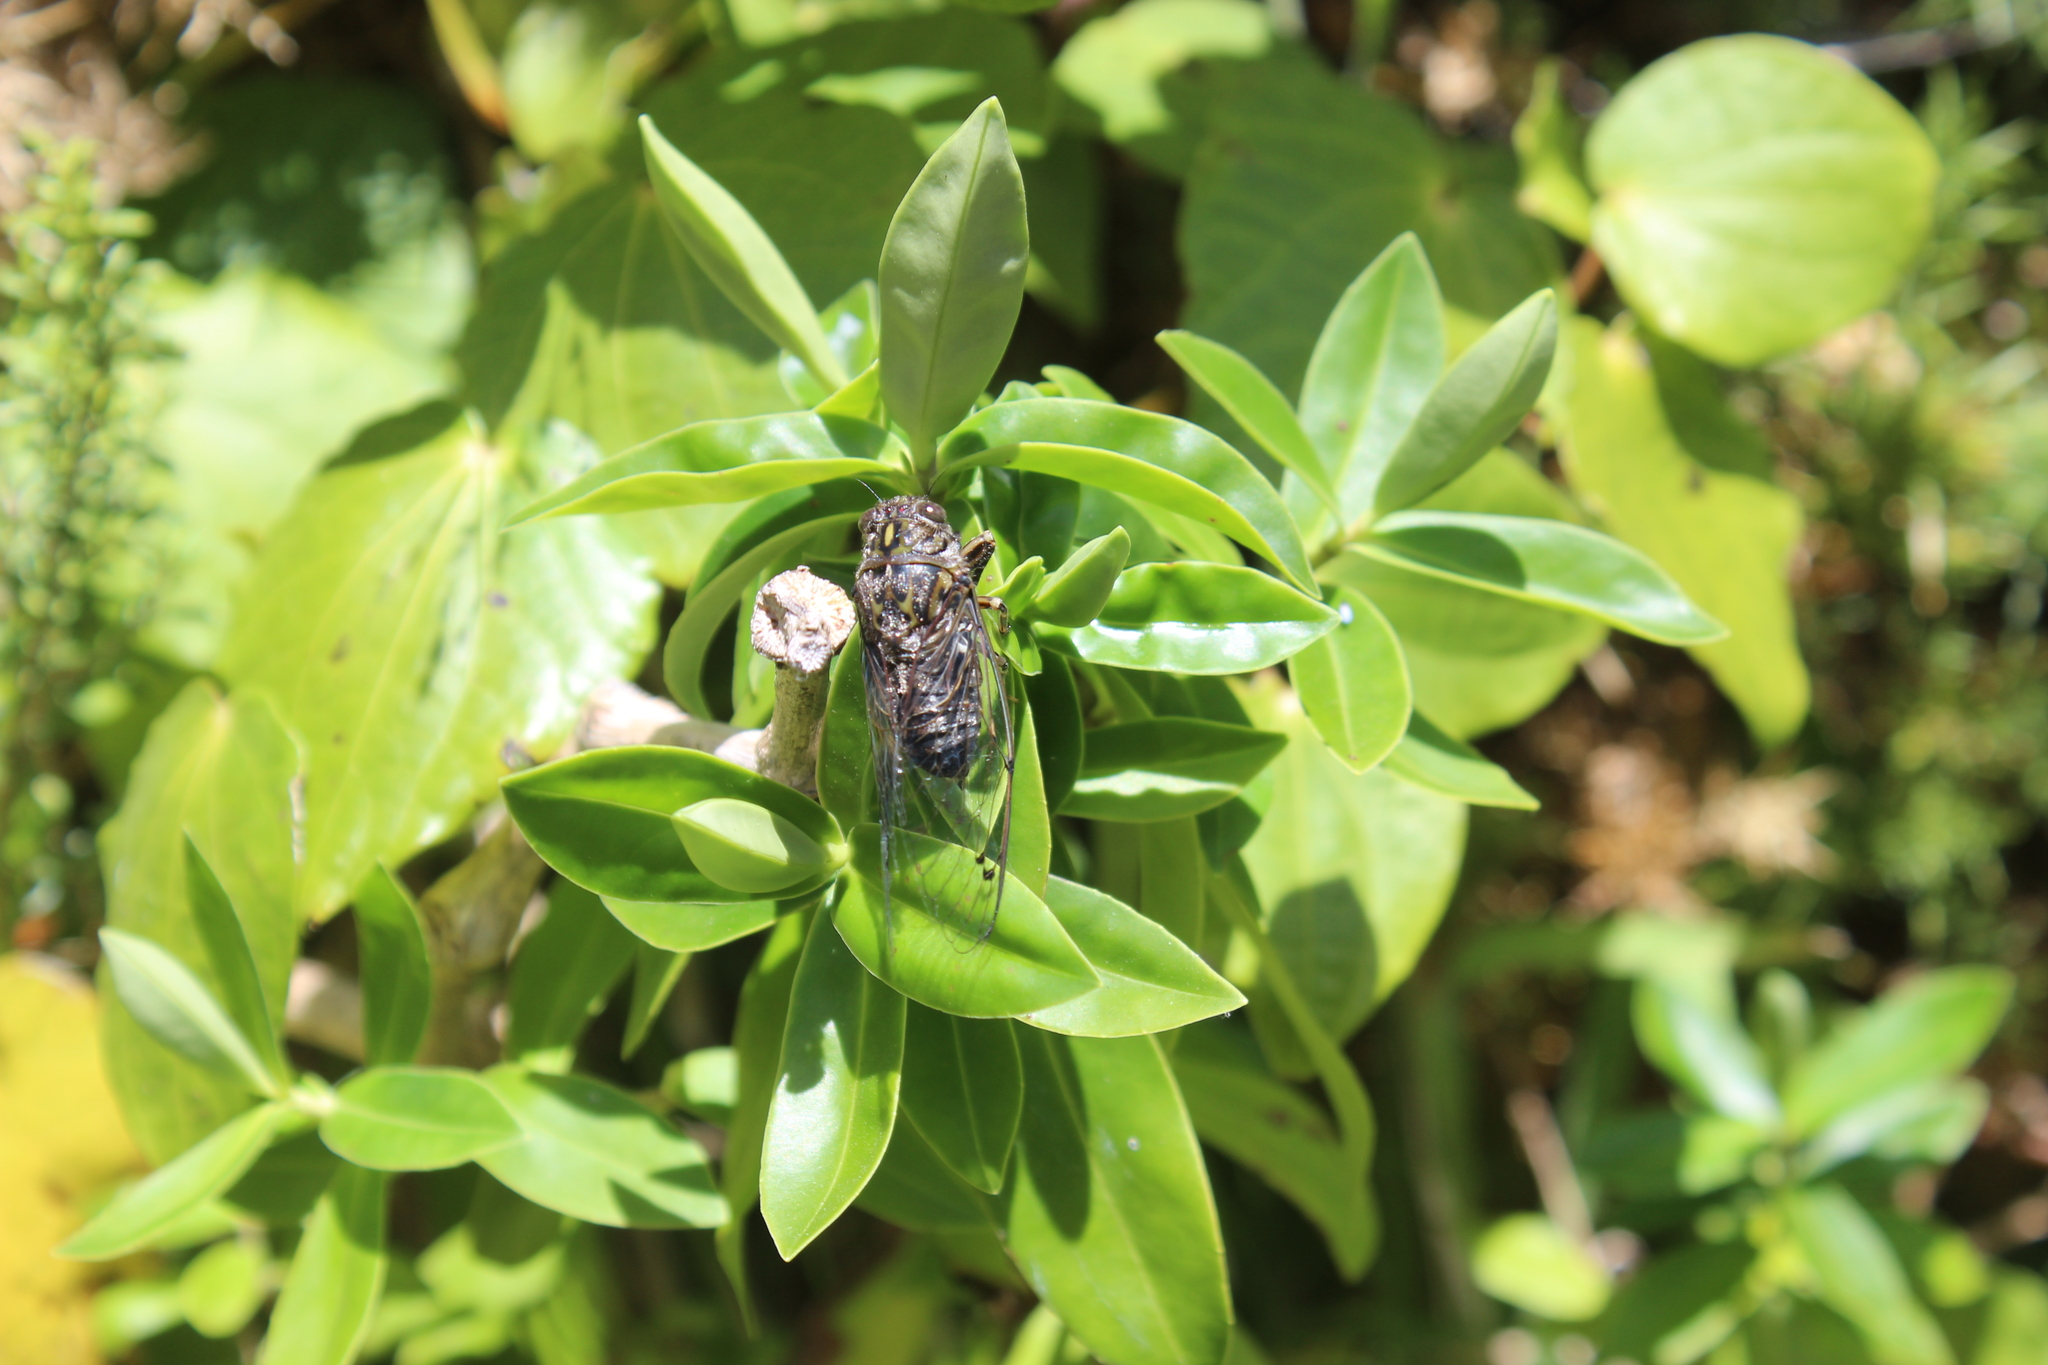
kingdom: Animalia
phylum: Arthropoda
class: Insecta
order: Hemiptera
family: Cicadidae
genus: Amphipsalta
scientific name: Amphipsalta cingulata
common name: Clapping cicada
